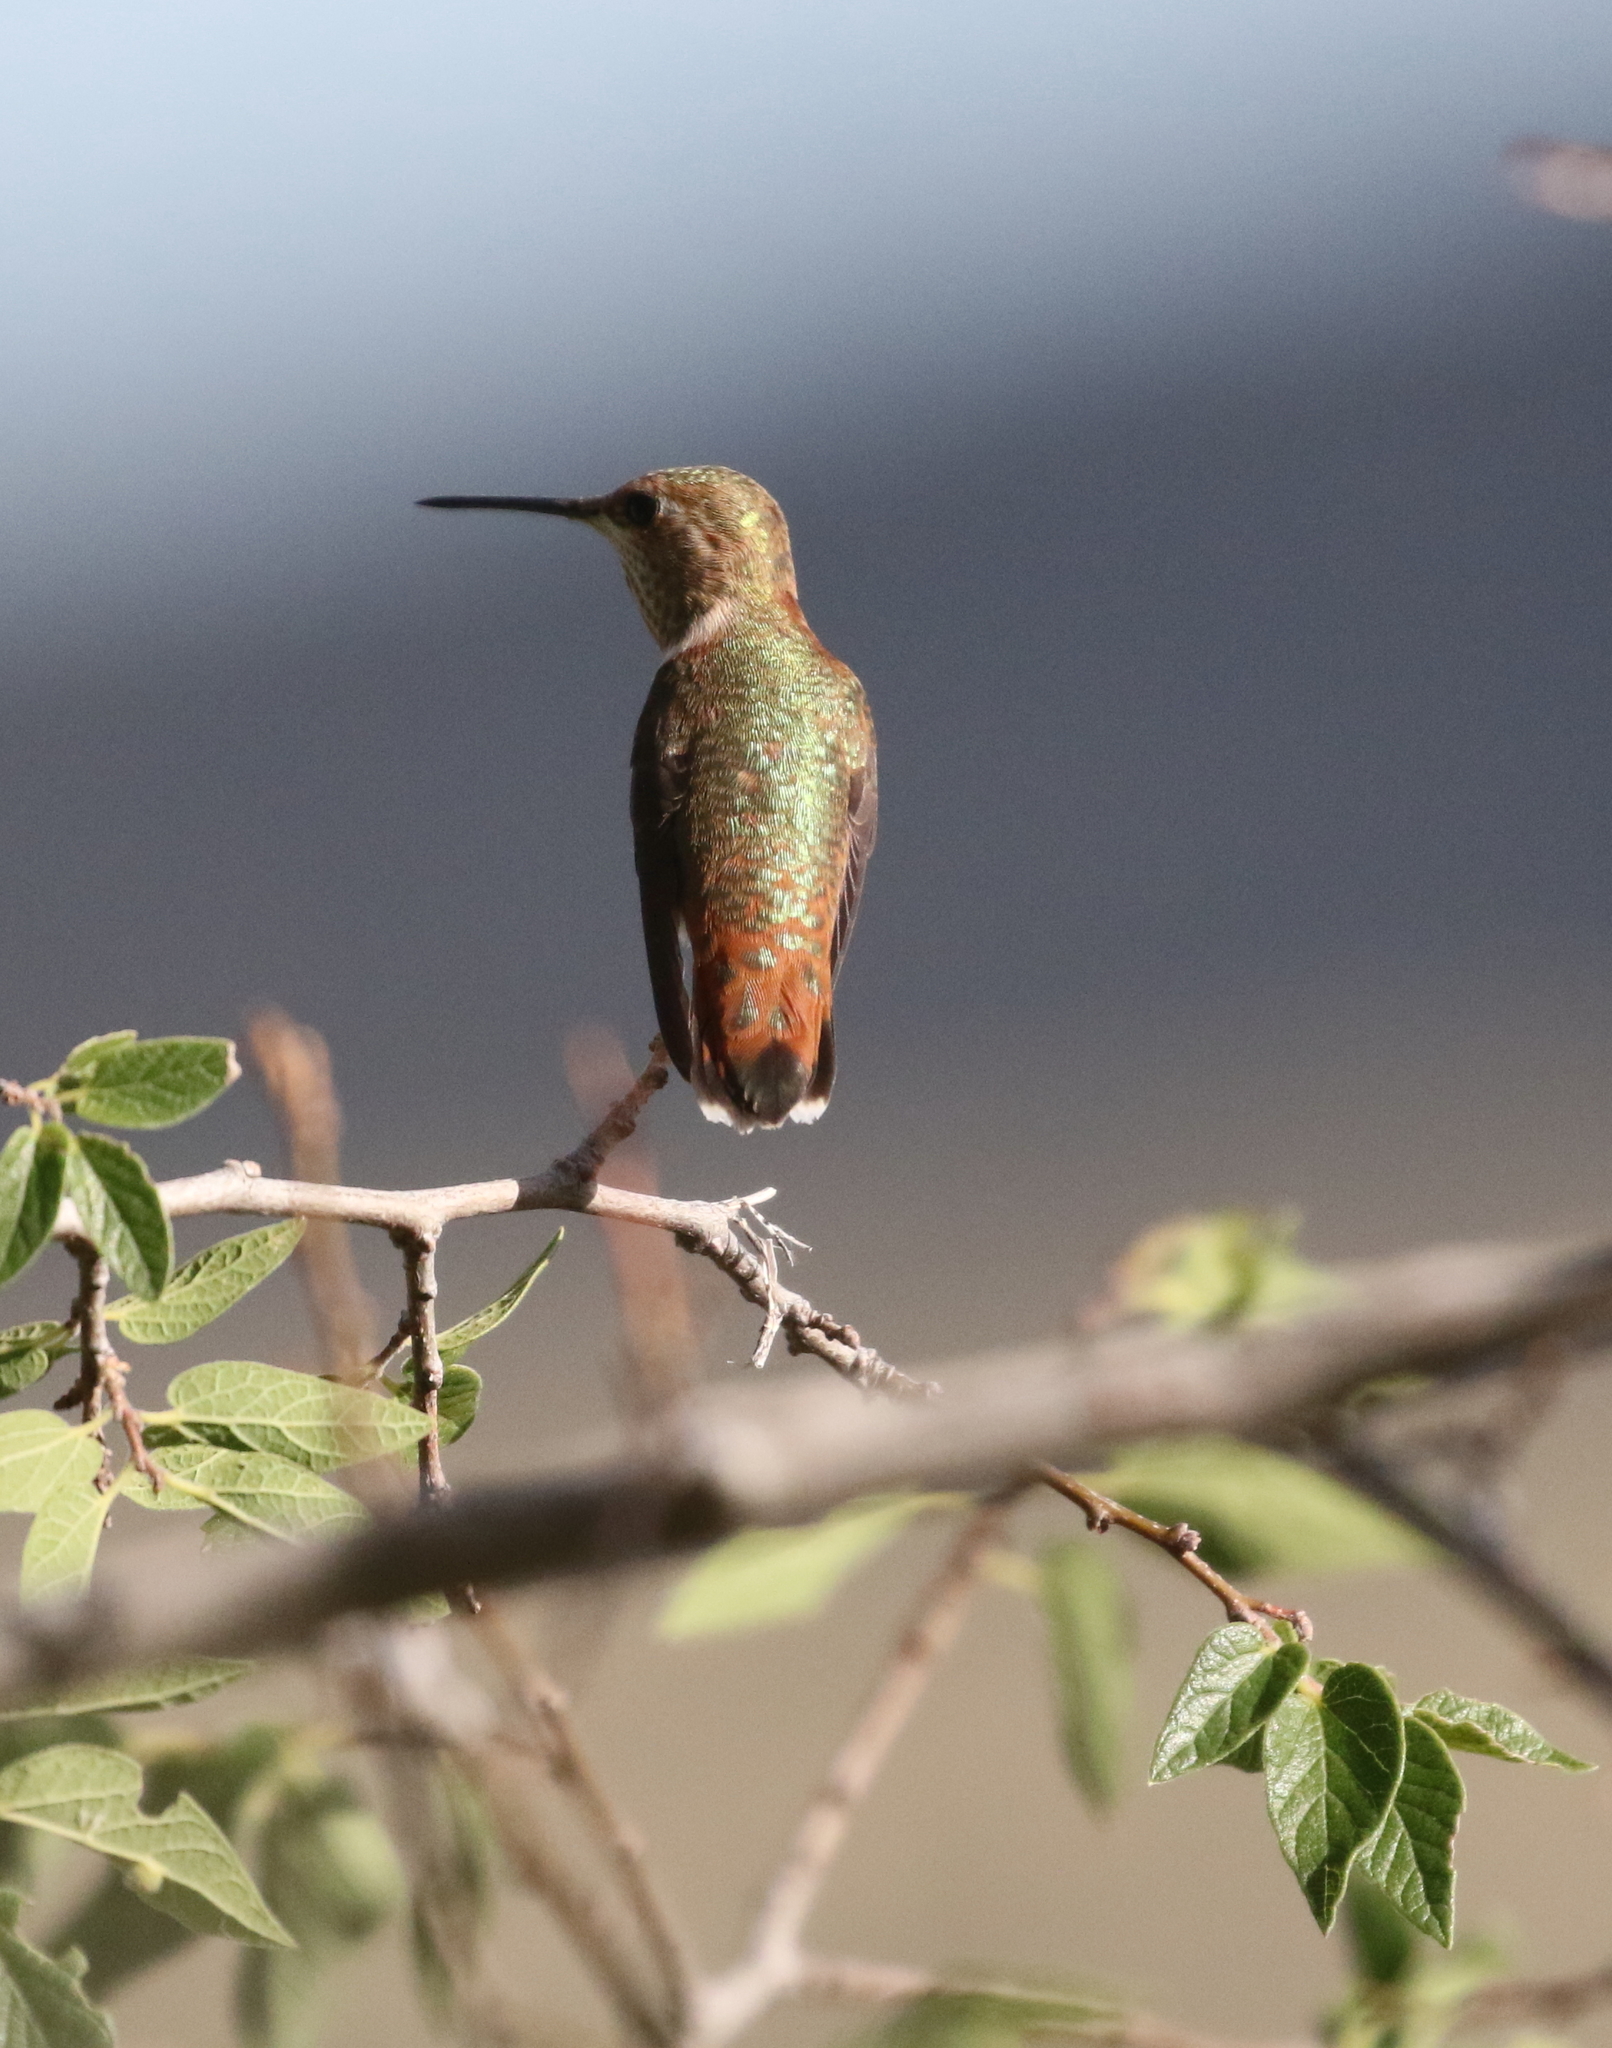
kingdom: Animalia
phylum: Chordata
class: Aves
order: Apodiformes
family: Trochilidae
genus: Selasphorus
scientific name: Selasphorus rufus
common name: Rufous hummingbird
